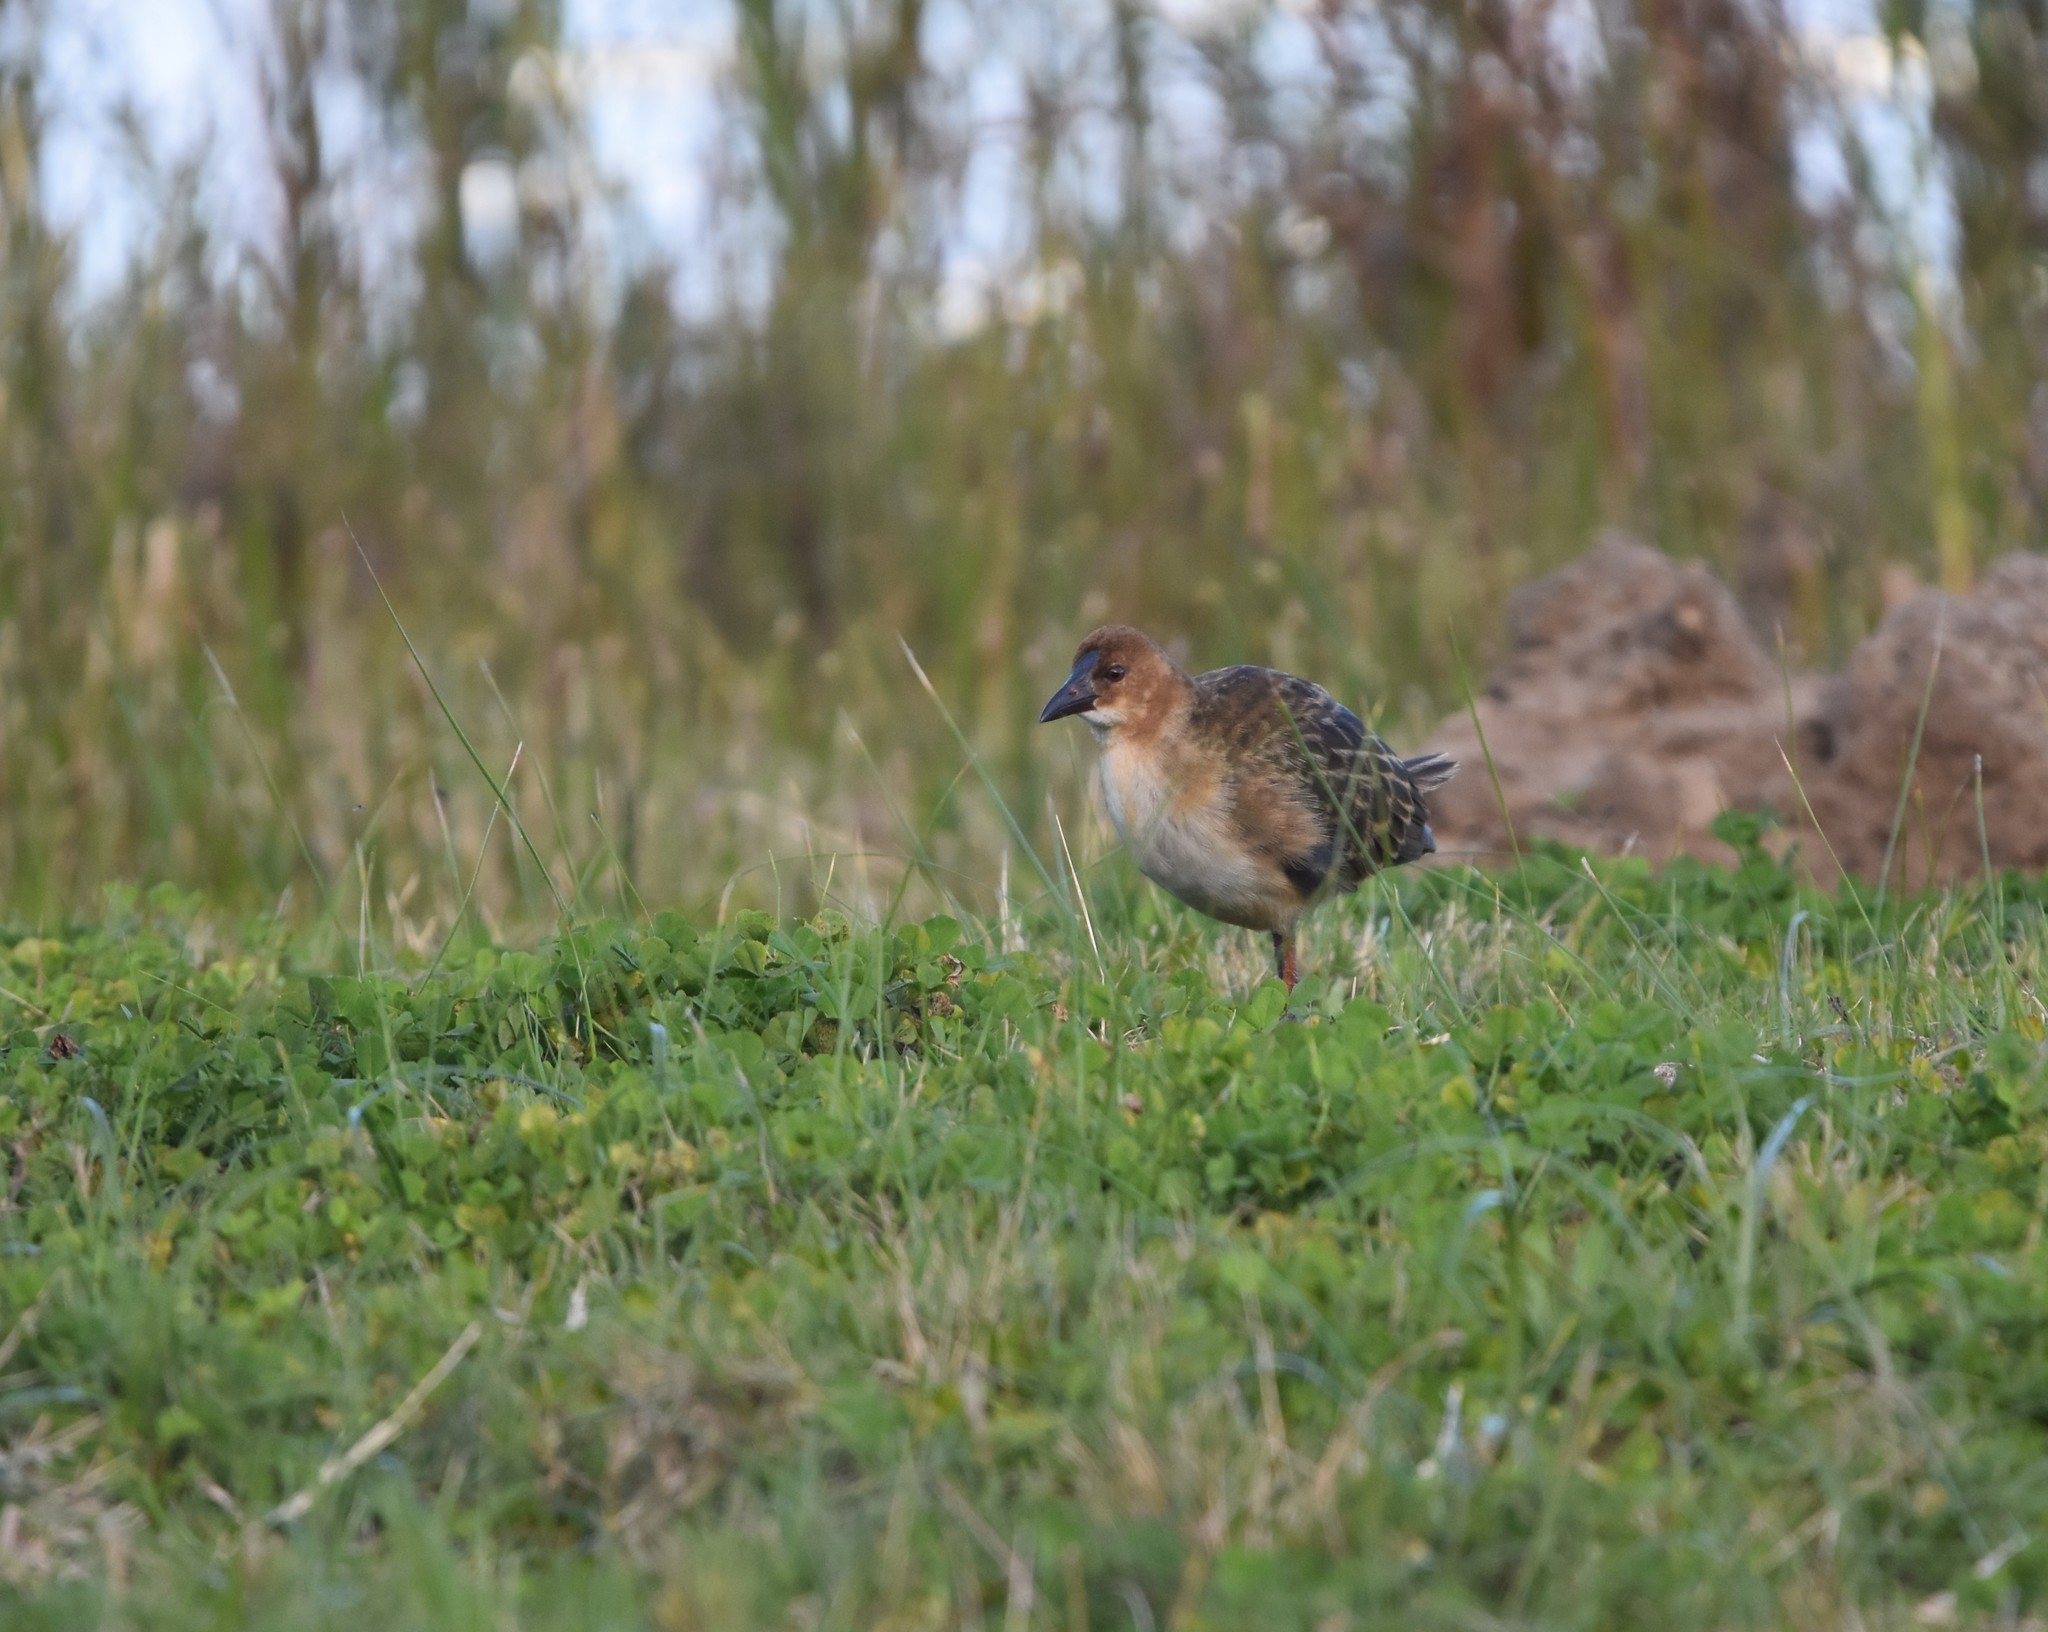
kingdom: Animalia
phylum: Chordata
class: Aves
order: Gruiformes
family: Rallidae
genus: Porphyrio
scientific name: Porphyrio alleni
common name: Allen's gallinule
